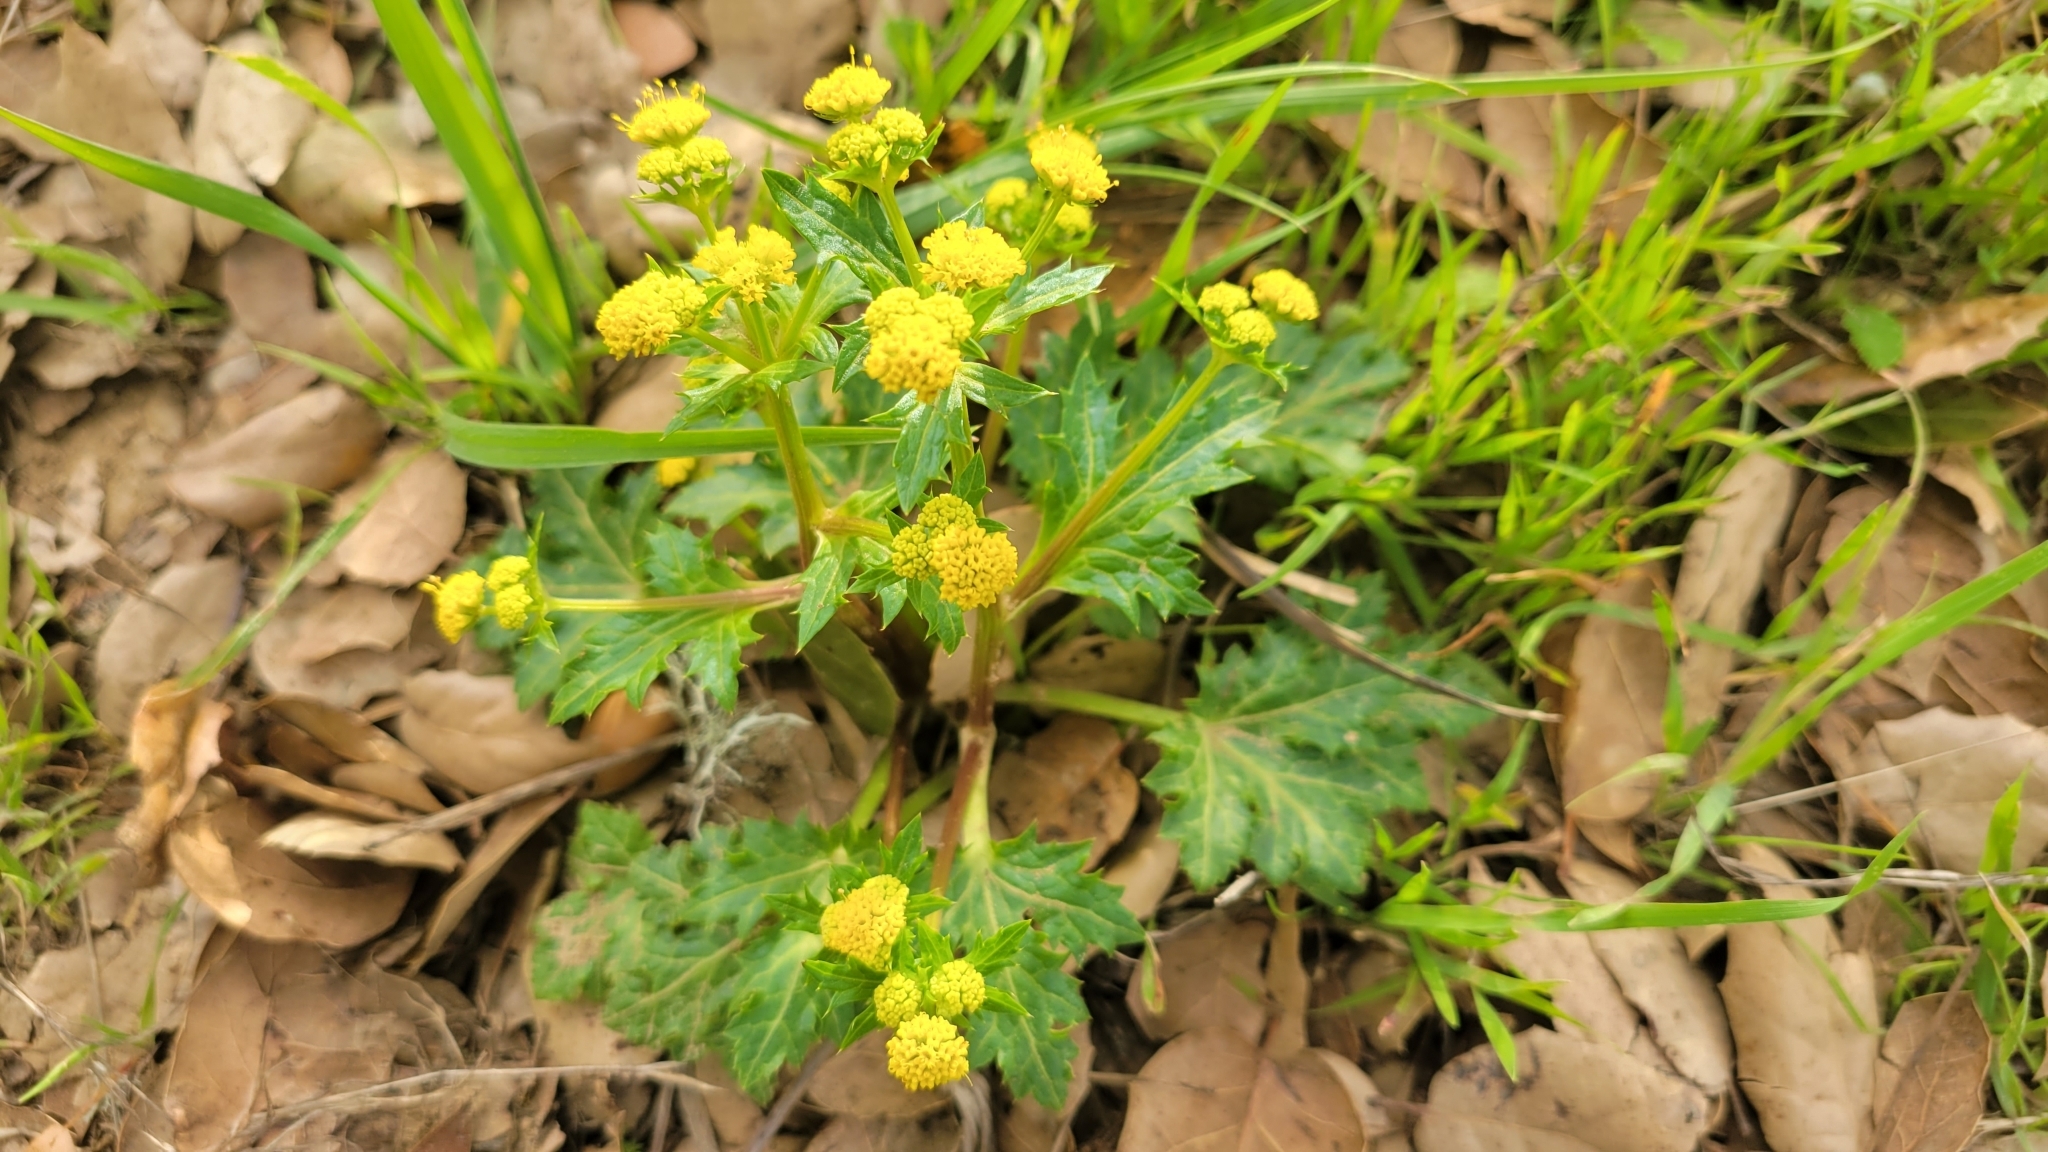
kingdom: Plantae
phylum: Tracheophyta
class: Magnoliopsida
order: Apiales
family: Apiaceae
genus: Sanicula
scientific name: Sanicula laciniata
